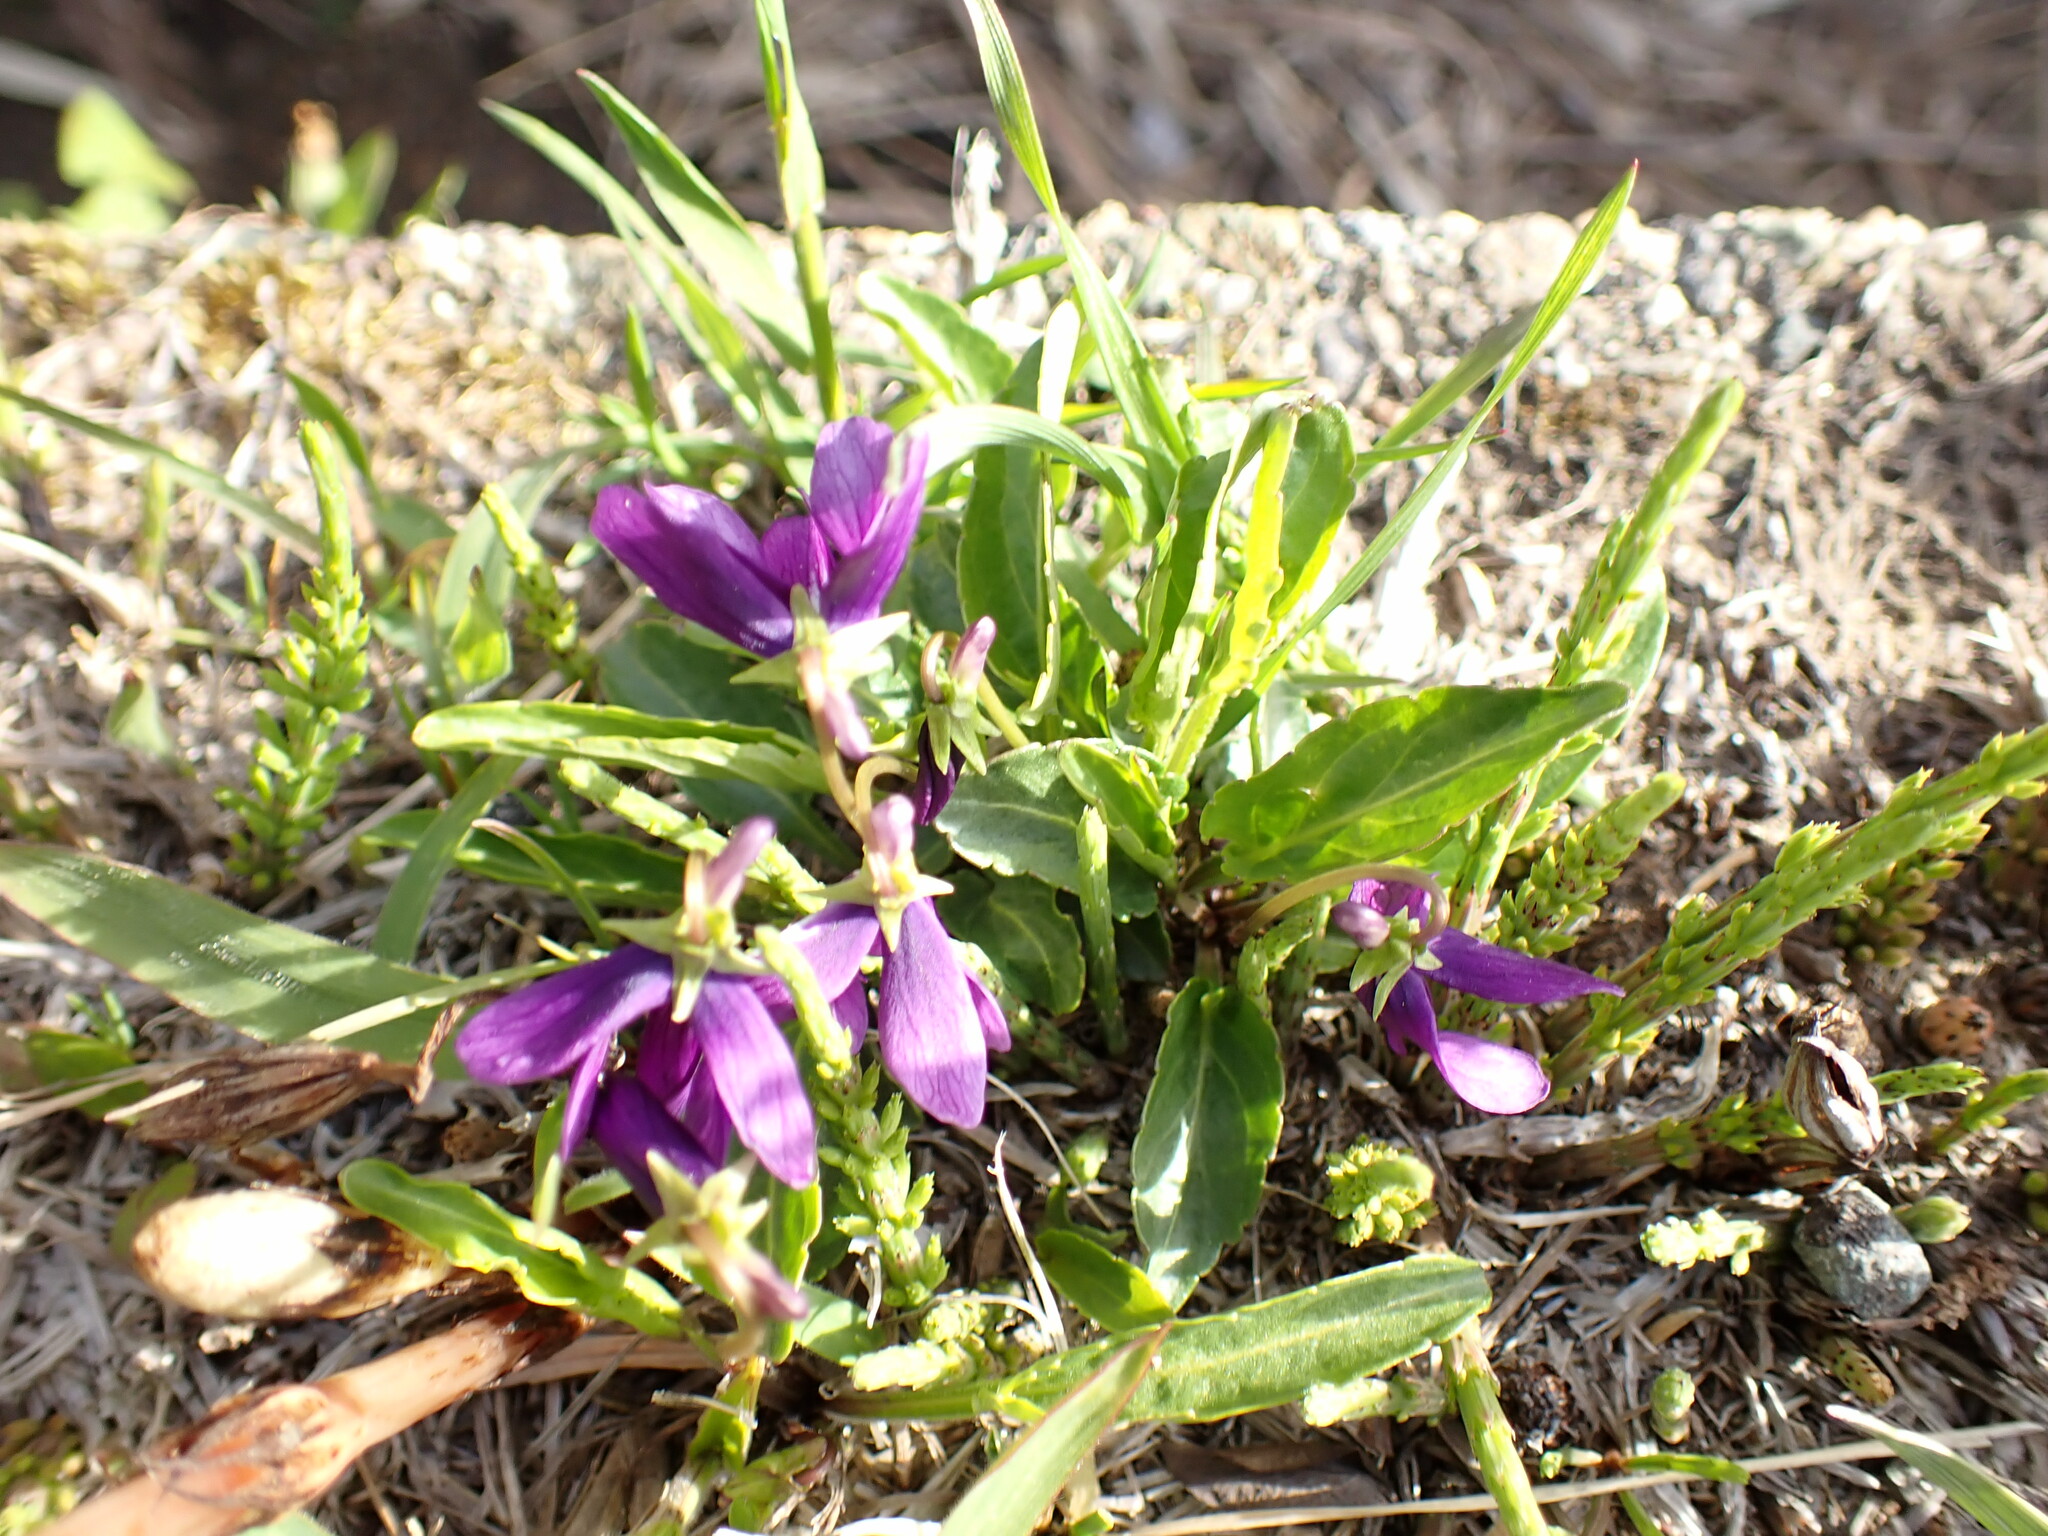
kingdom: Plantae
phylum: Tracheophyta
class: Magnoliopsida
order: Malpighiales
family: Violaceae
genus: Viola
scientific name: Viola mandshurica
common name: Manchuria violet
